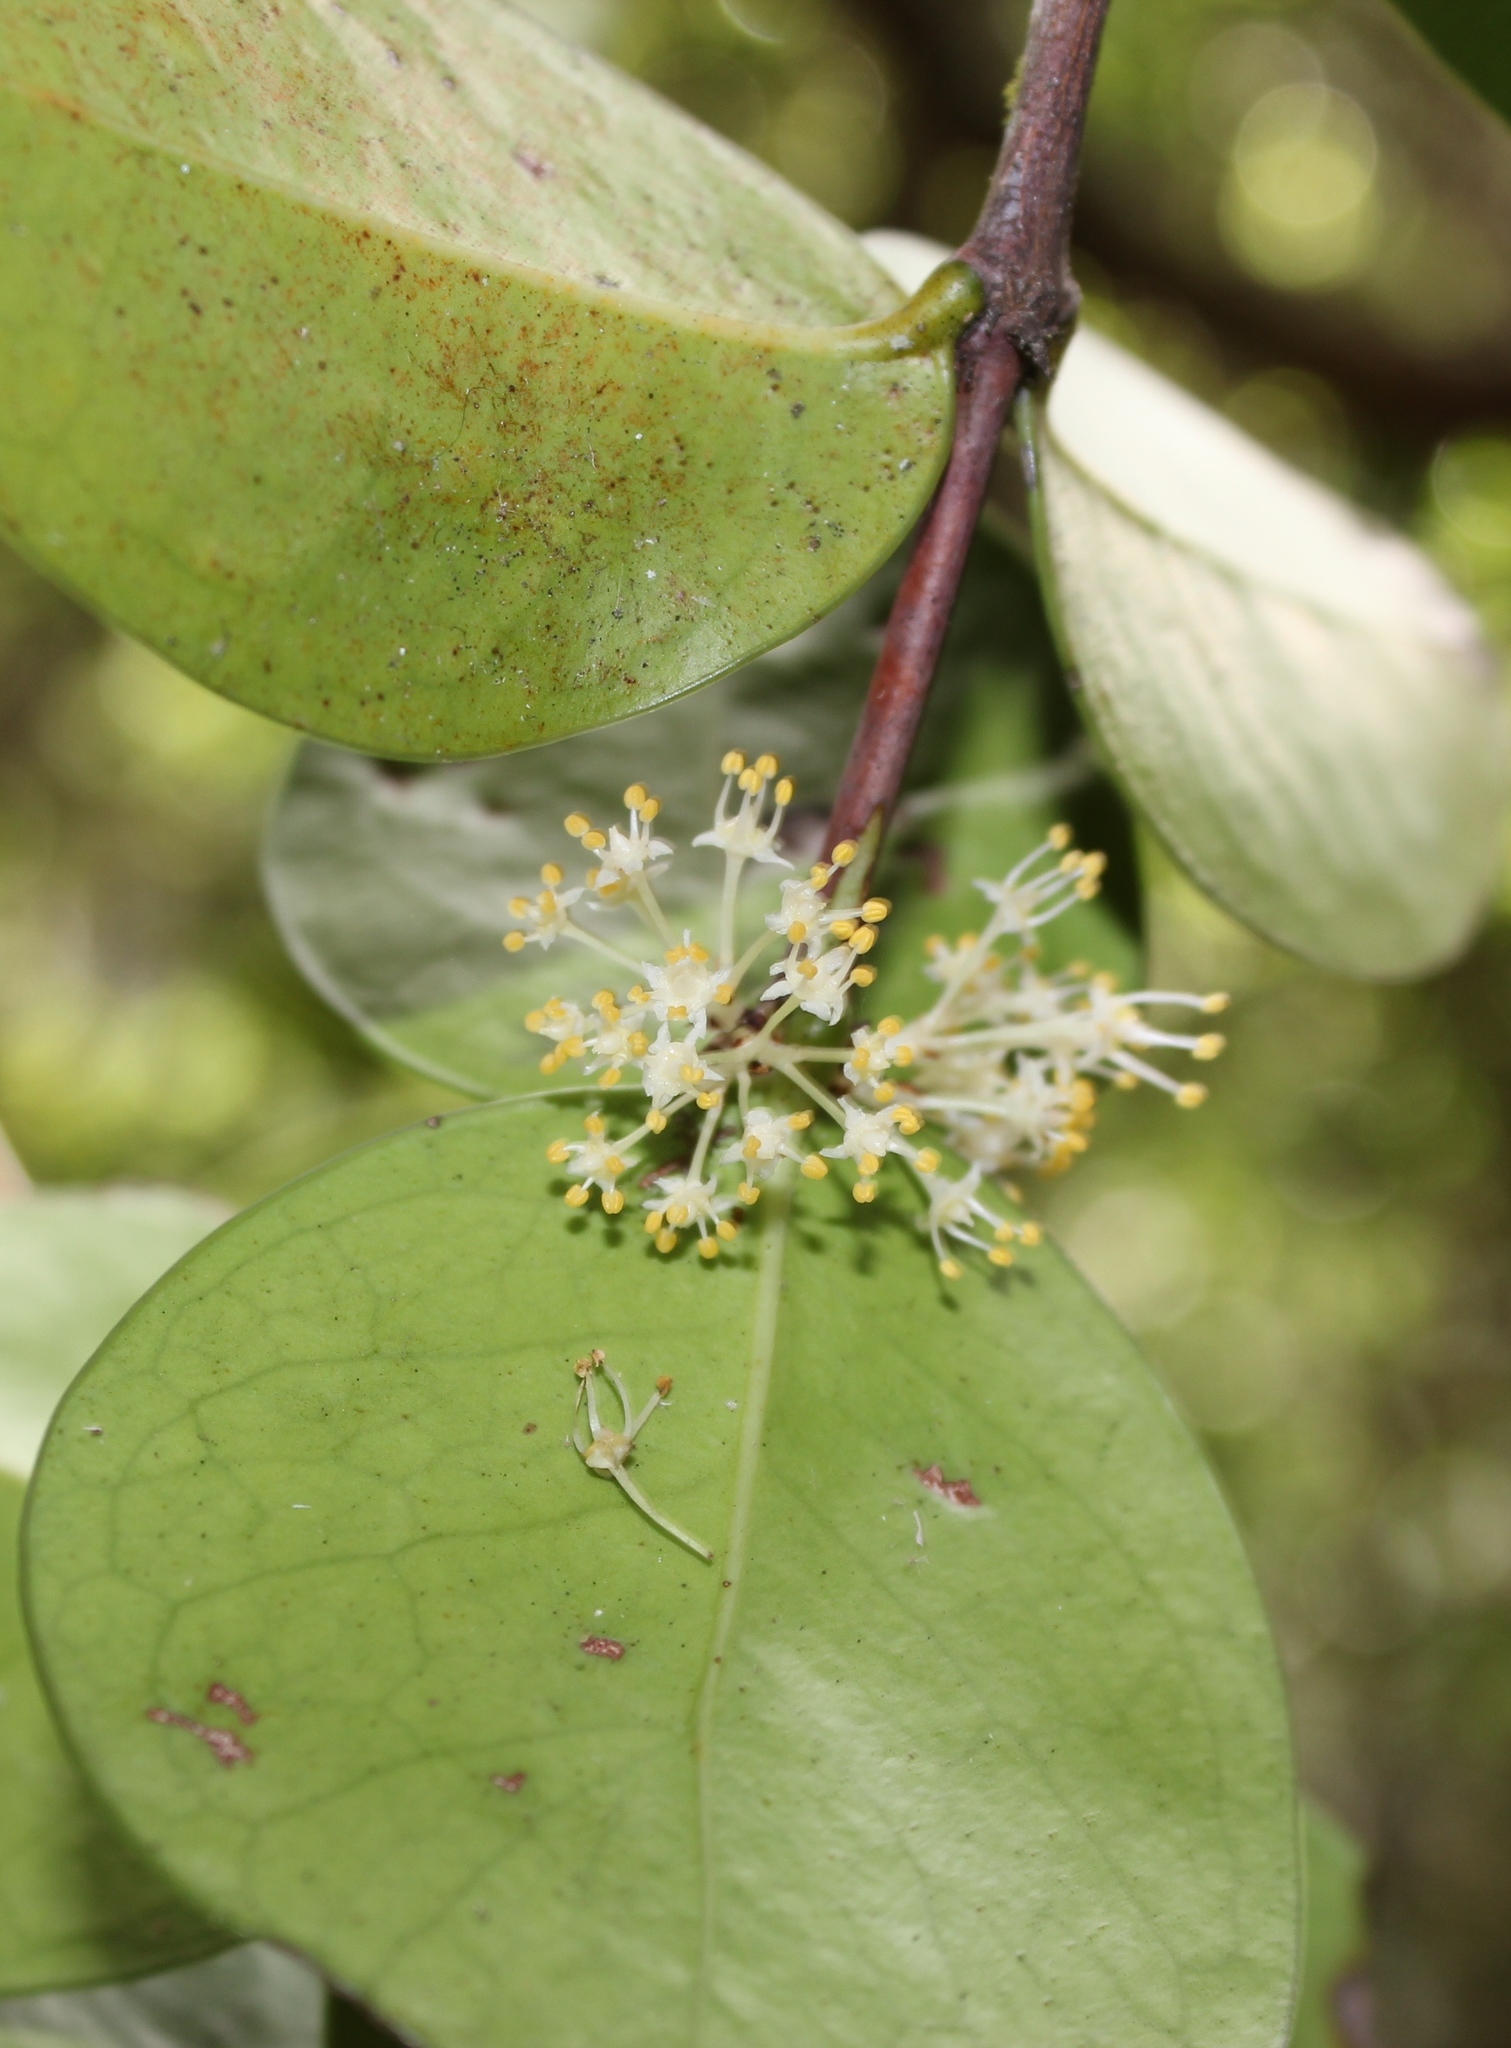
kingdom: Plantae
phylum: Tracheophyta
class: Magnoliopsida
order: Celastrales
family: Celastraceae
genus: Maurocenia
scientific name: Maurocenia frangula
